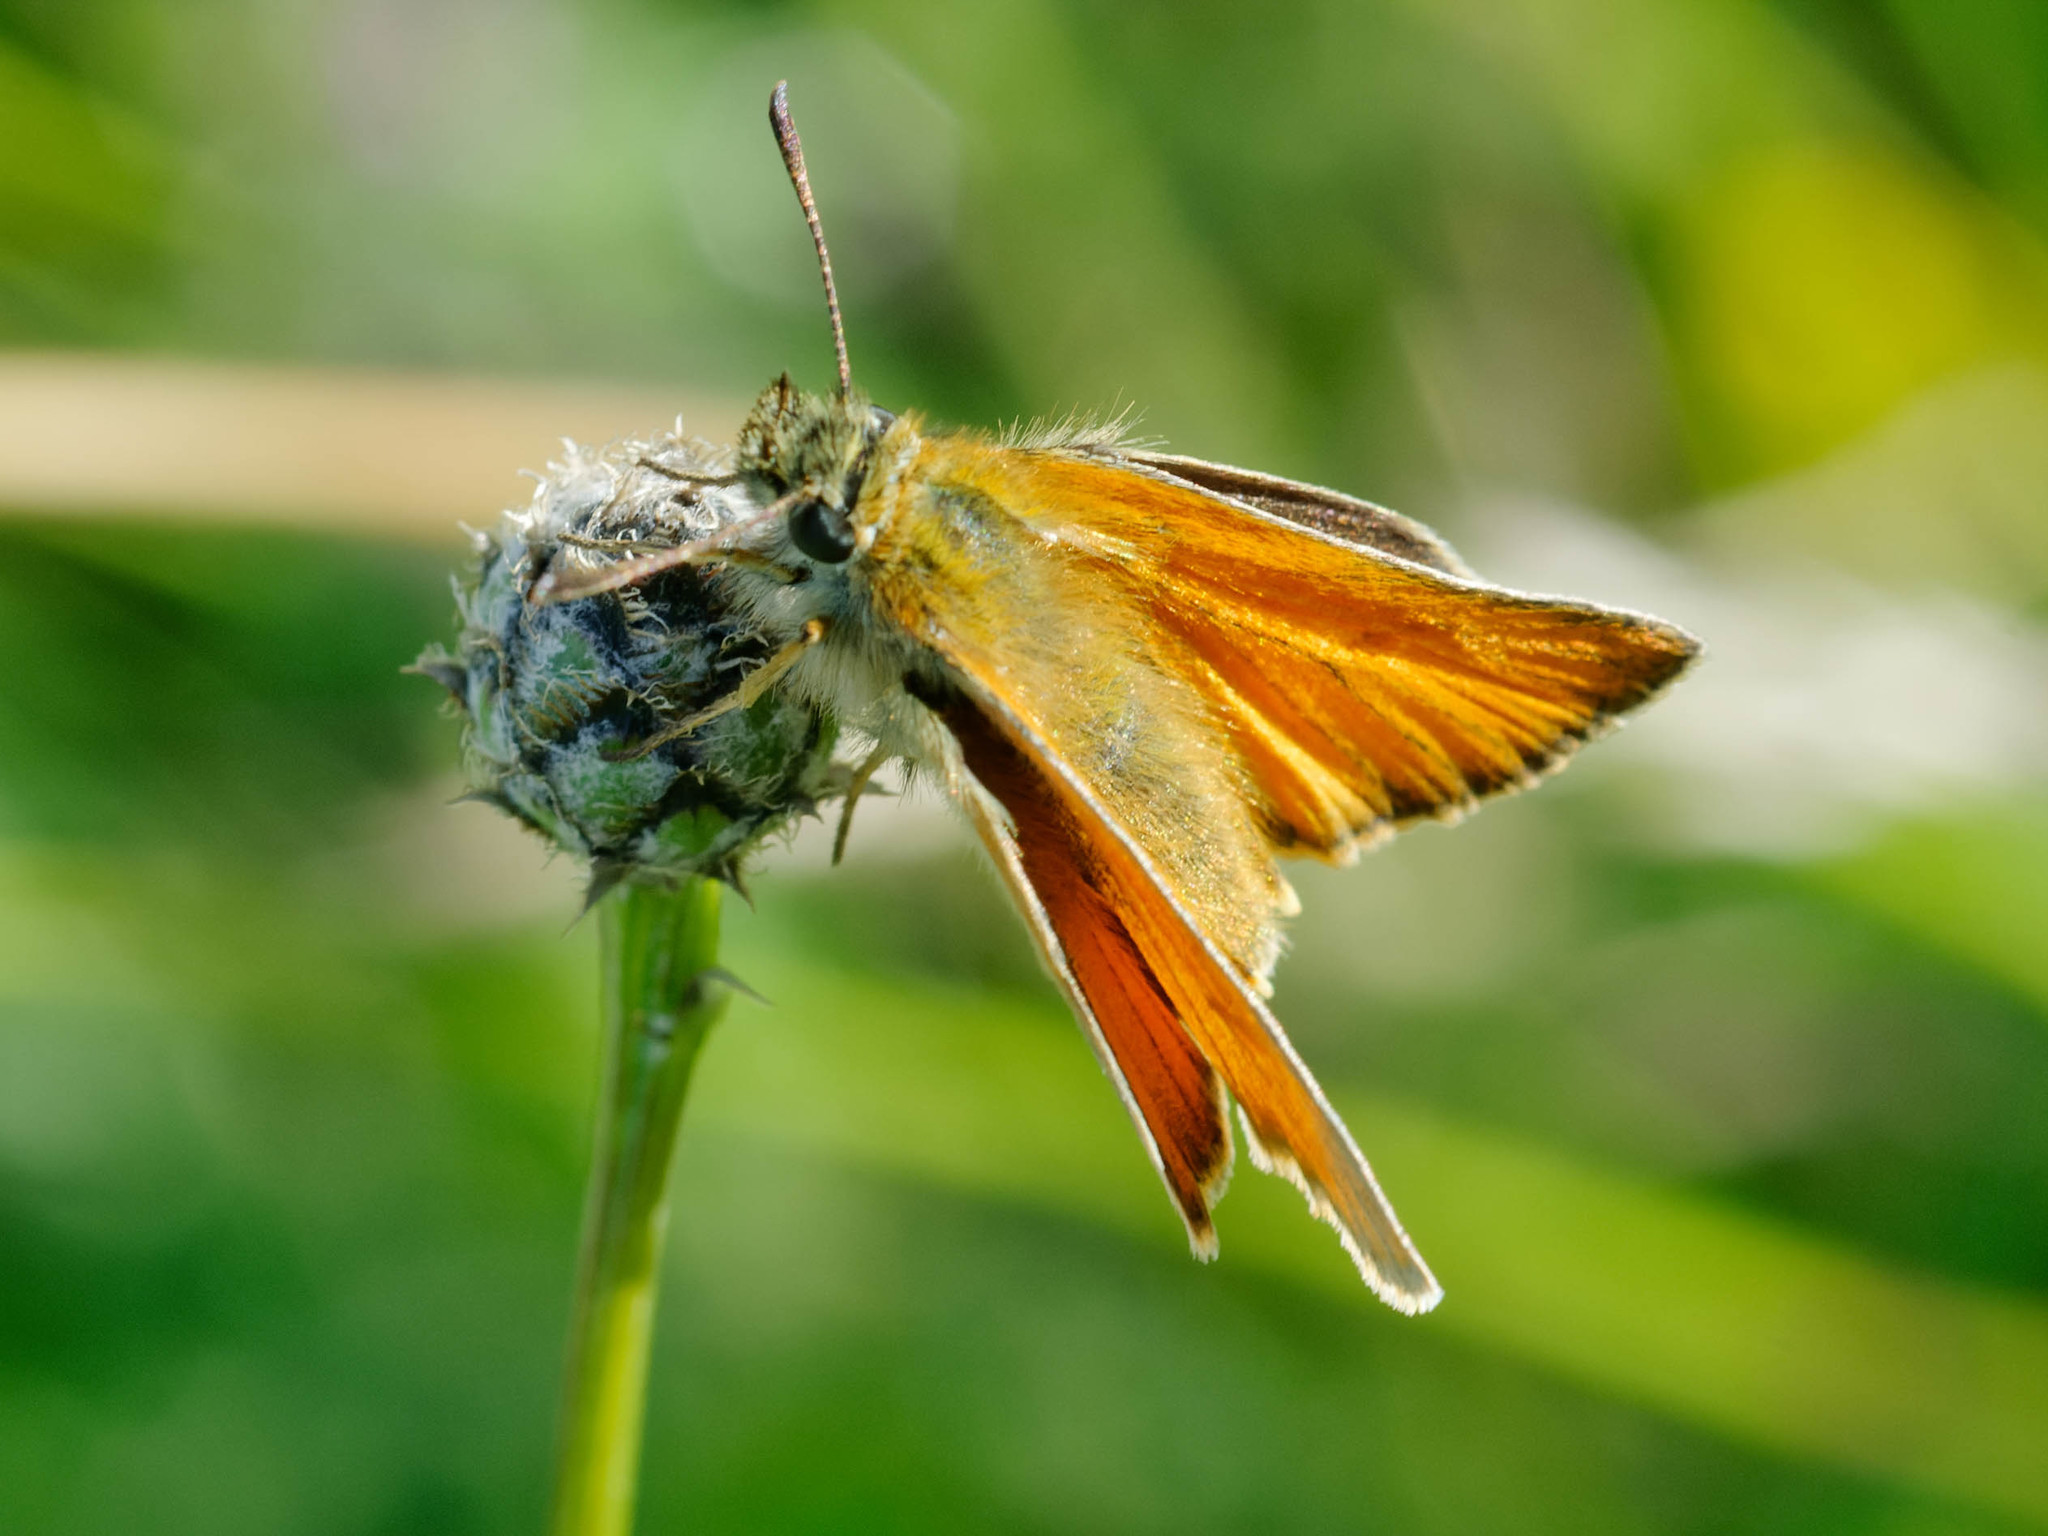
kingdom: Animalia
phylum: Arthropoda
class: Insecta
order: Lepidoptera
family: Hesperiidae
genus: Thymelicus
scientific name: Thymelicus sylvestris
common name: Small skipper
